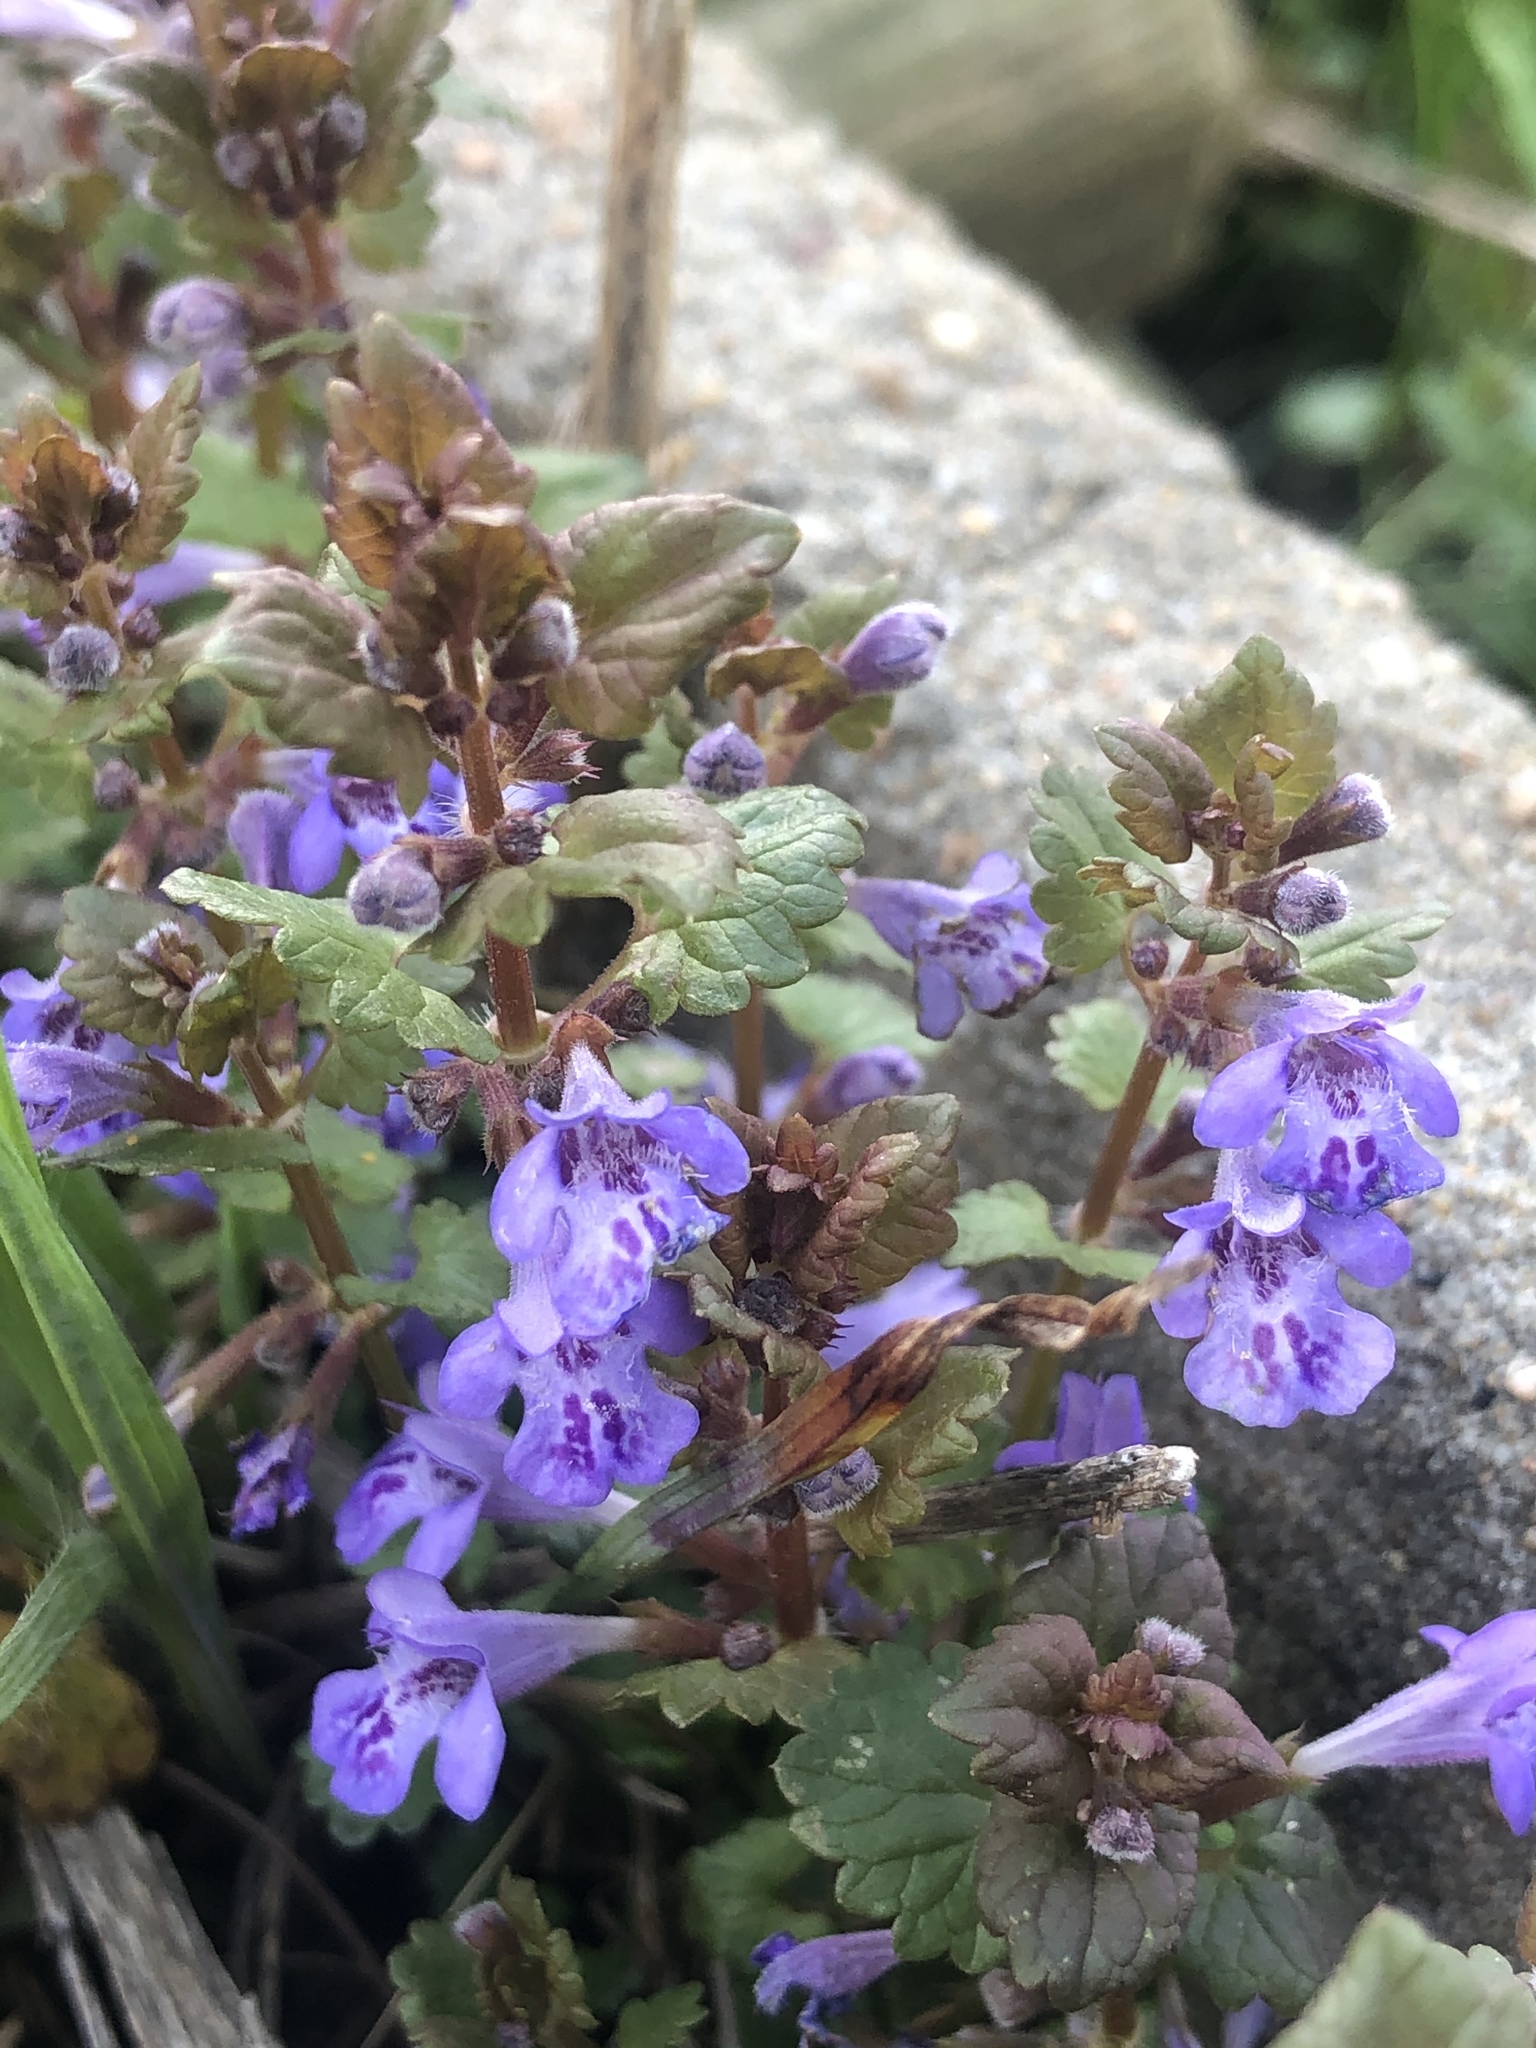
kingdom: Plantae
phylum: Tracheophyta
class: Magnoliopsida
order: Lamiales
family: Lamiaceae
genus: Glechoma
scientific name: Glechoma hederacea
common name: Ground ivy
